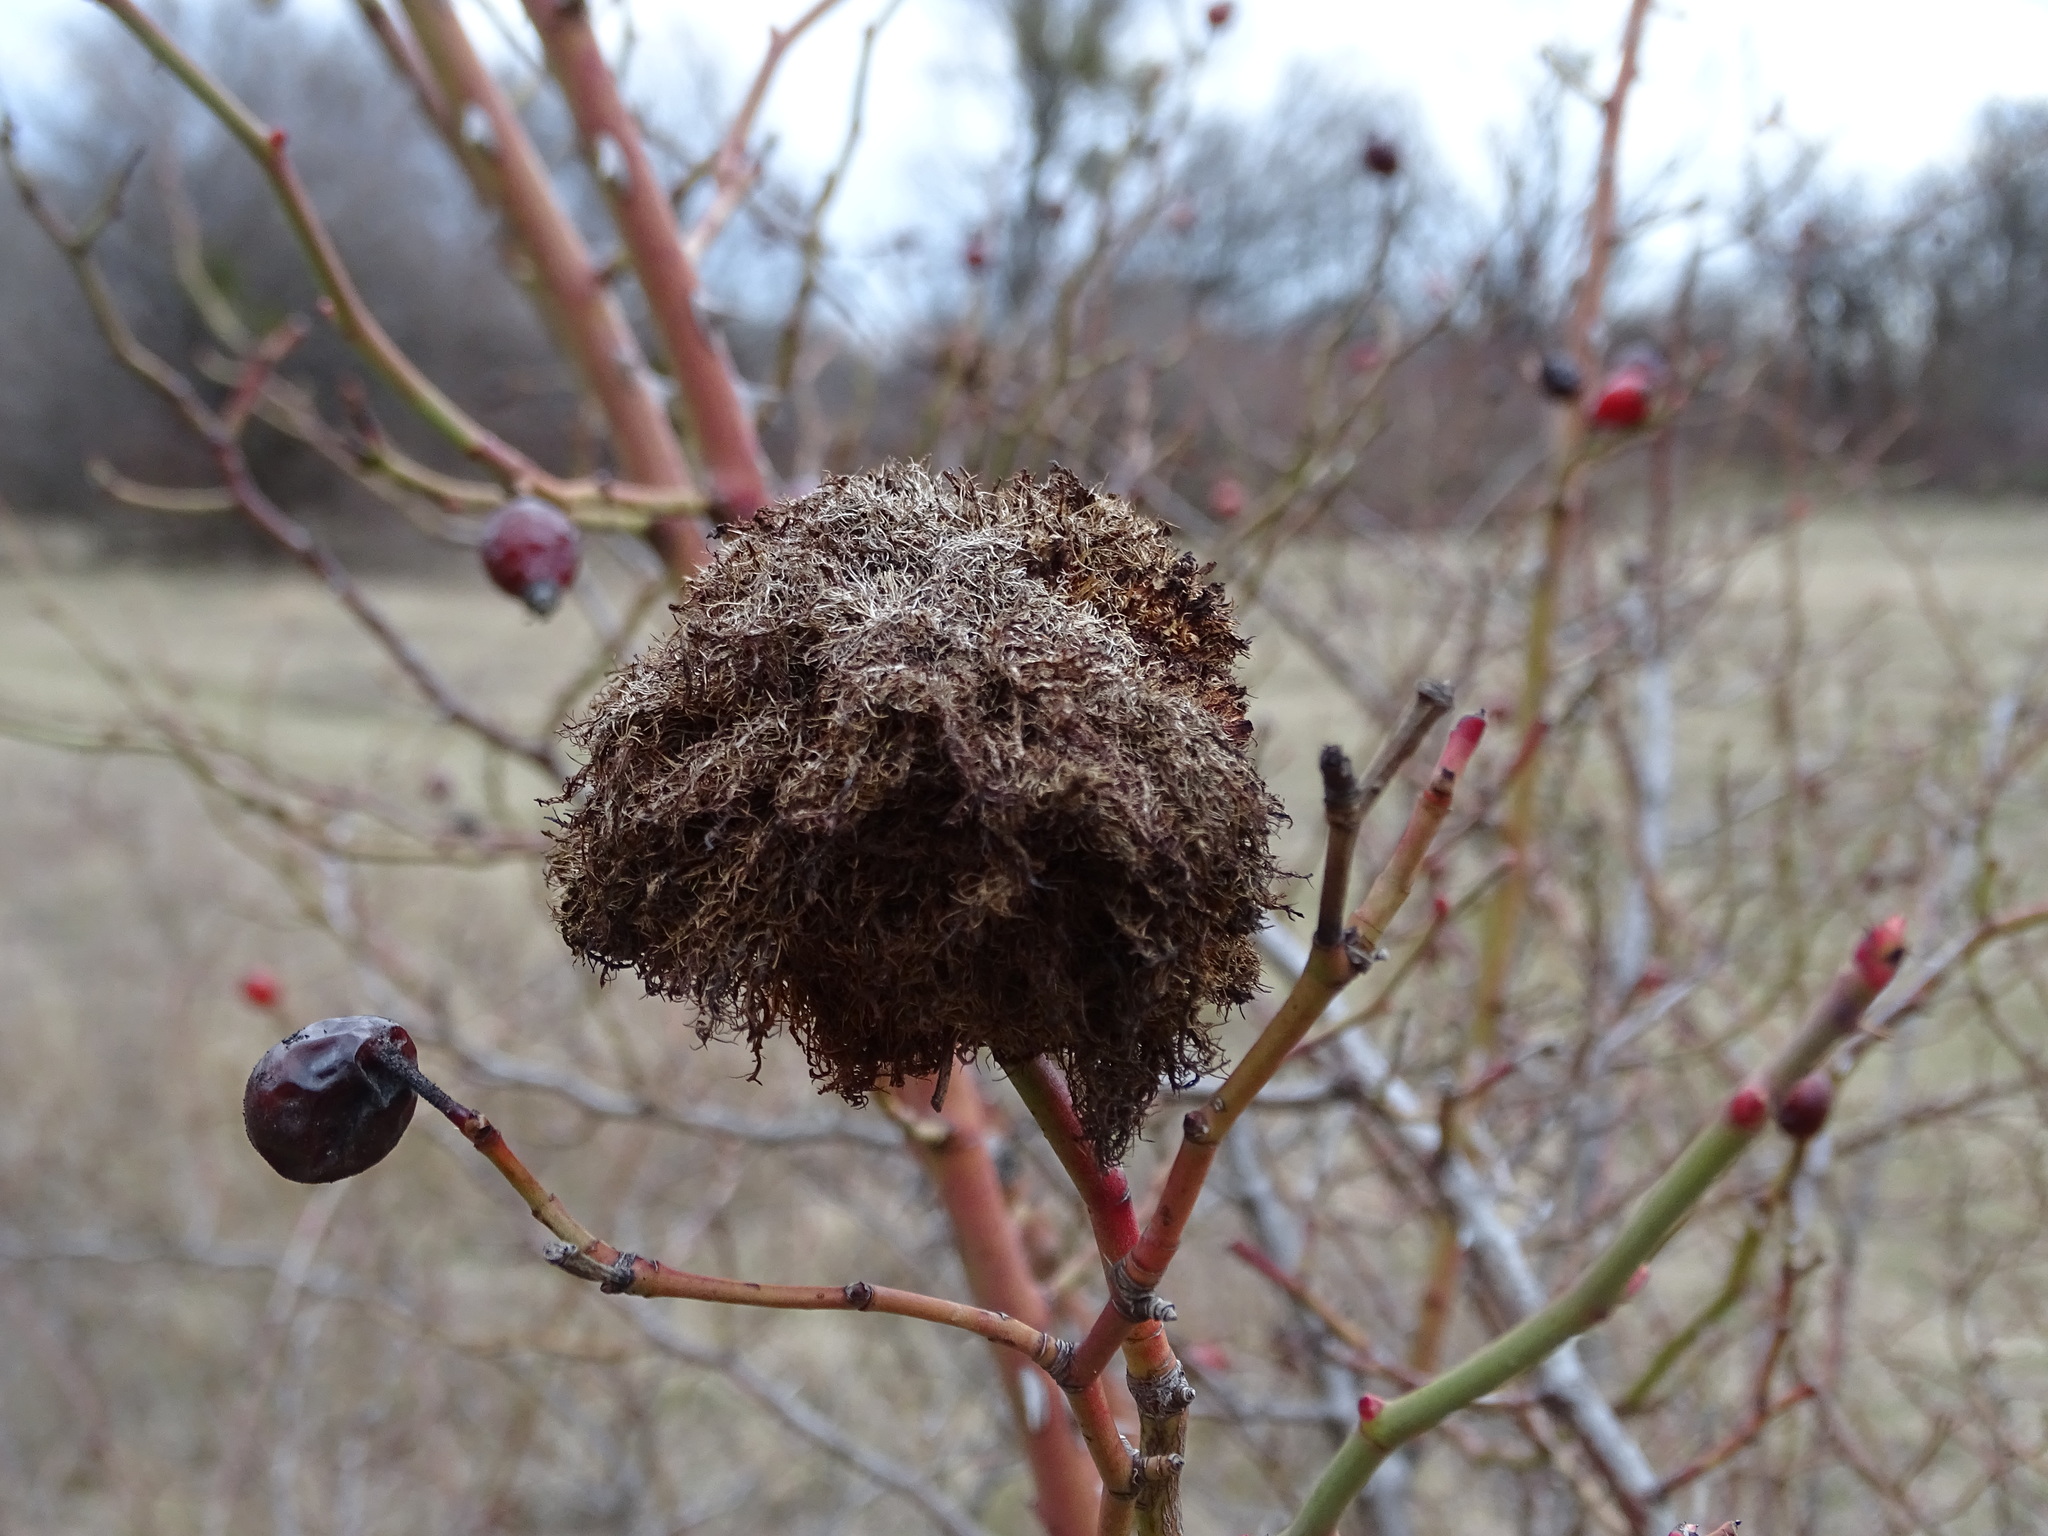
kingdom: Animalia
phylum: Arthropoda
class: Insecta
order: Hymenoptera
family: Cynipidae
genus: Diplolepis
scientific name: Diplolepis rosae
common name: Bedeguar gall
